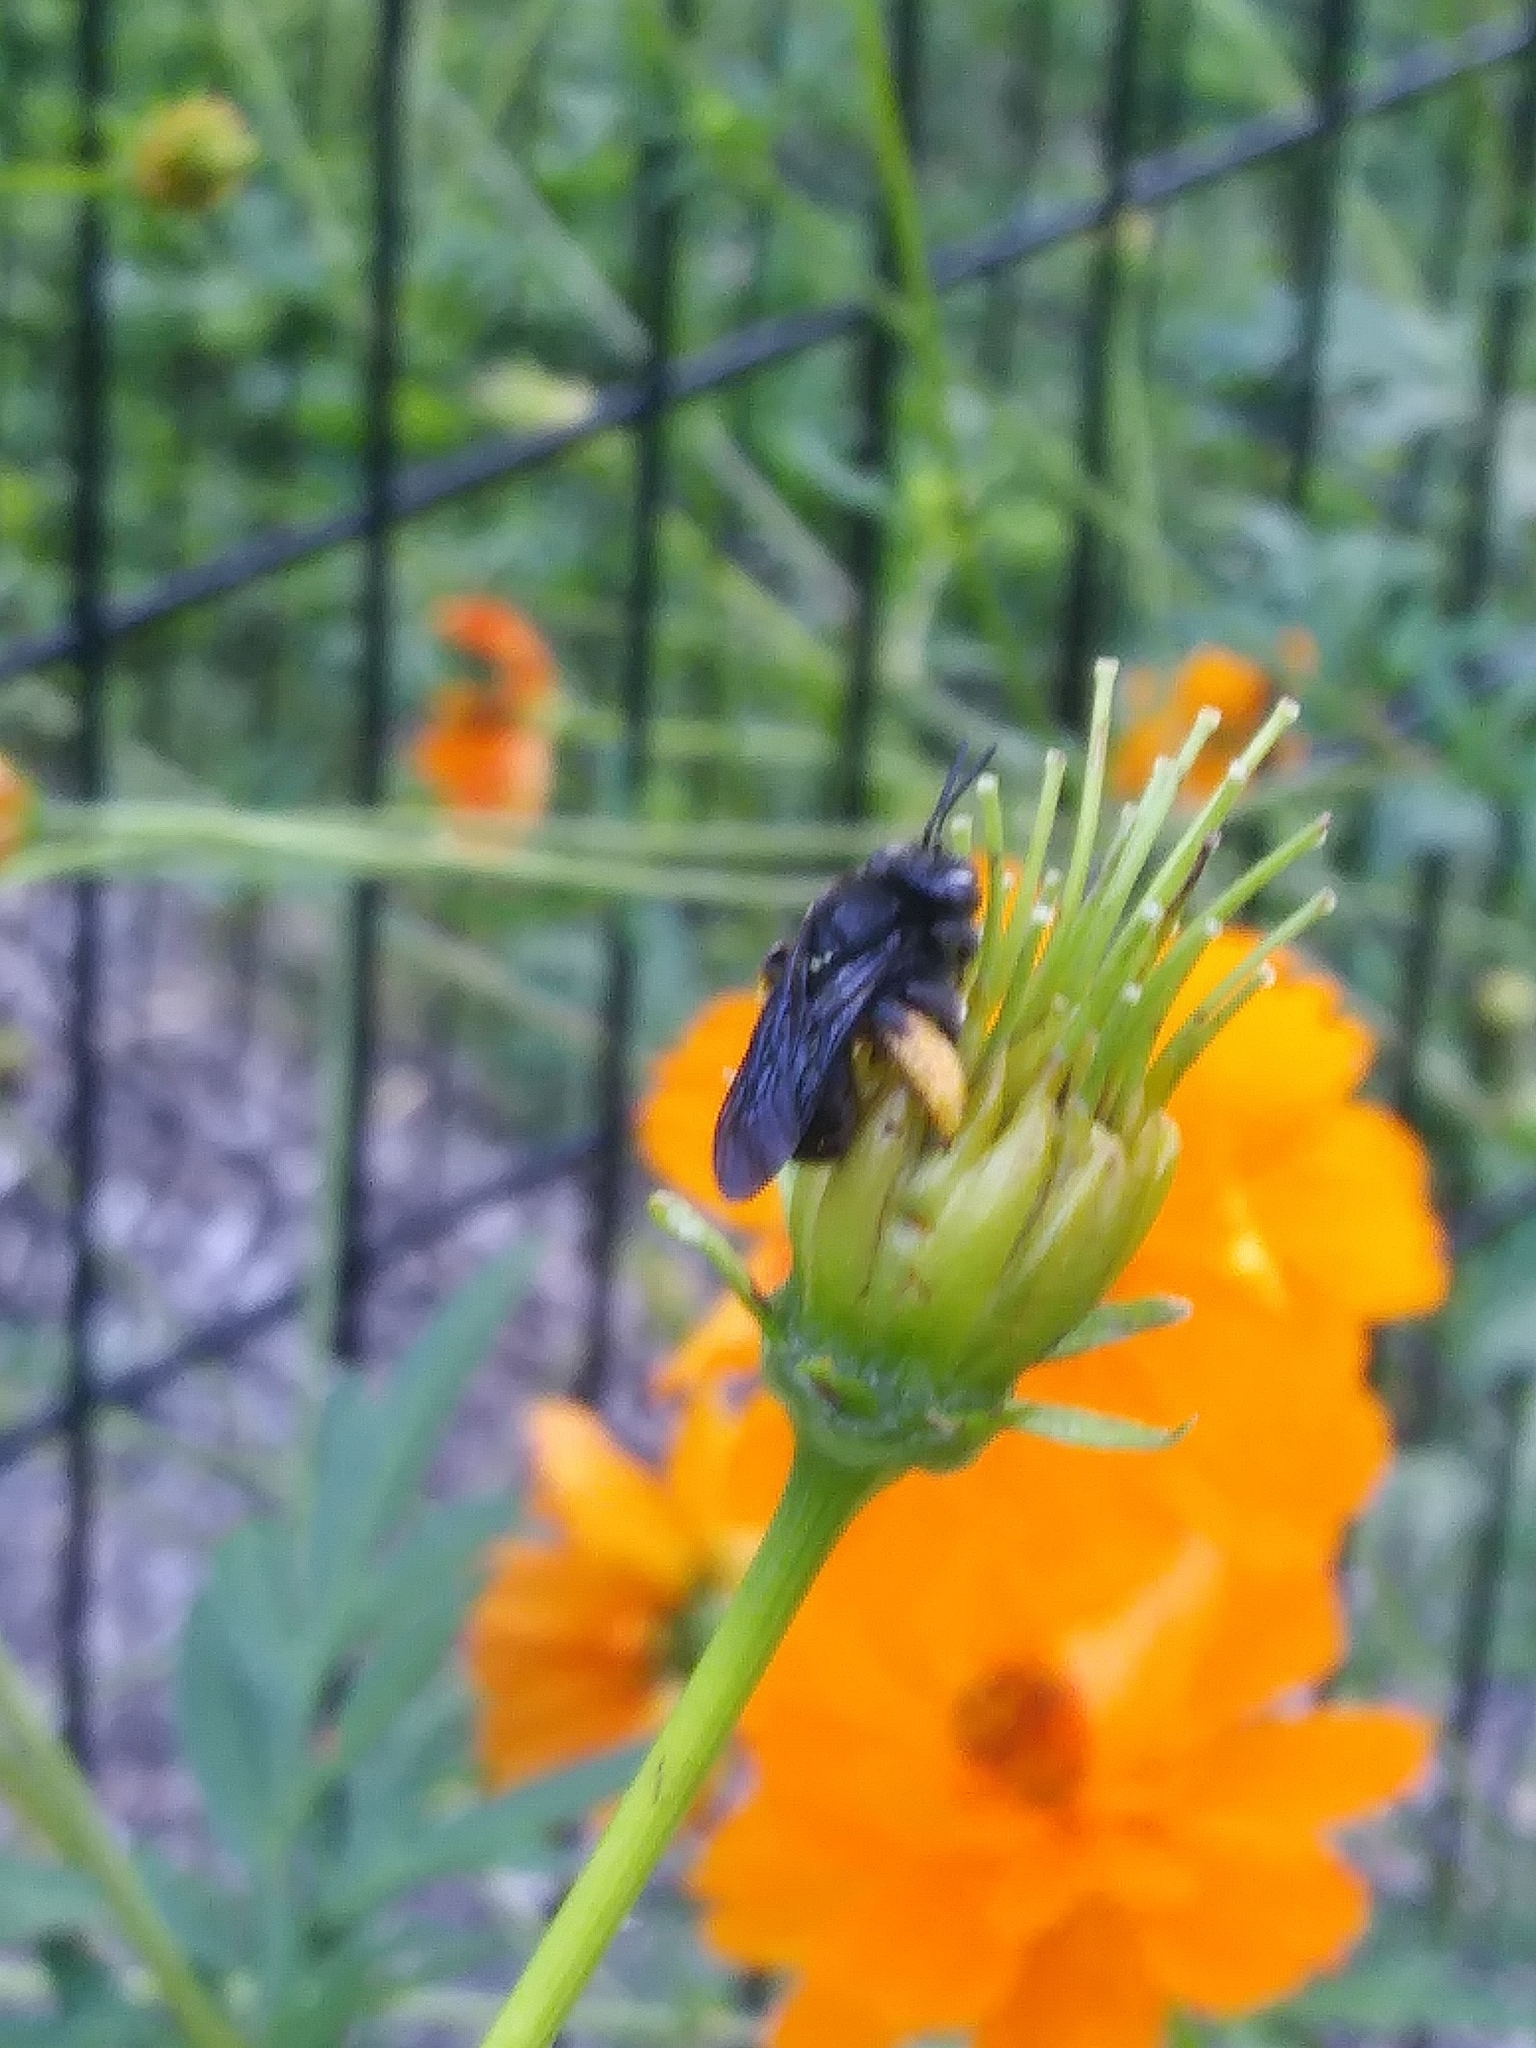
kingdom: Animalia
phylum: Arthropoda
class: Insecta
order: Hymenoptera
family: Apidae
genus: Melissodes
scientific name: Melissodes bimaculatus
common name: Two-spotted long-horned bee
